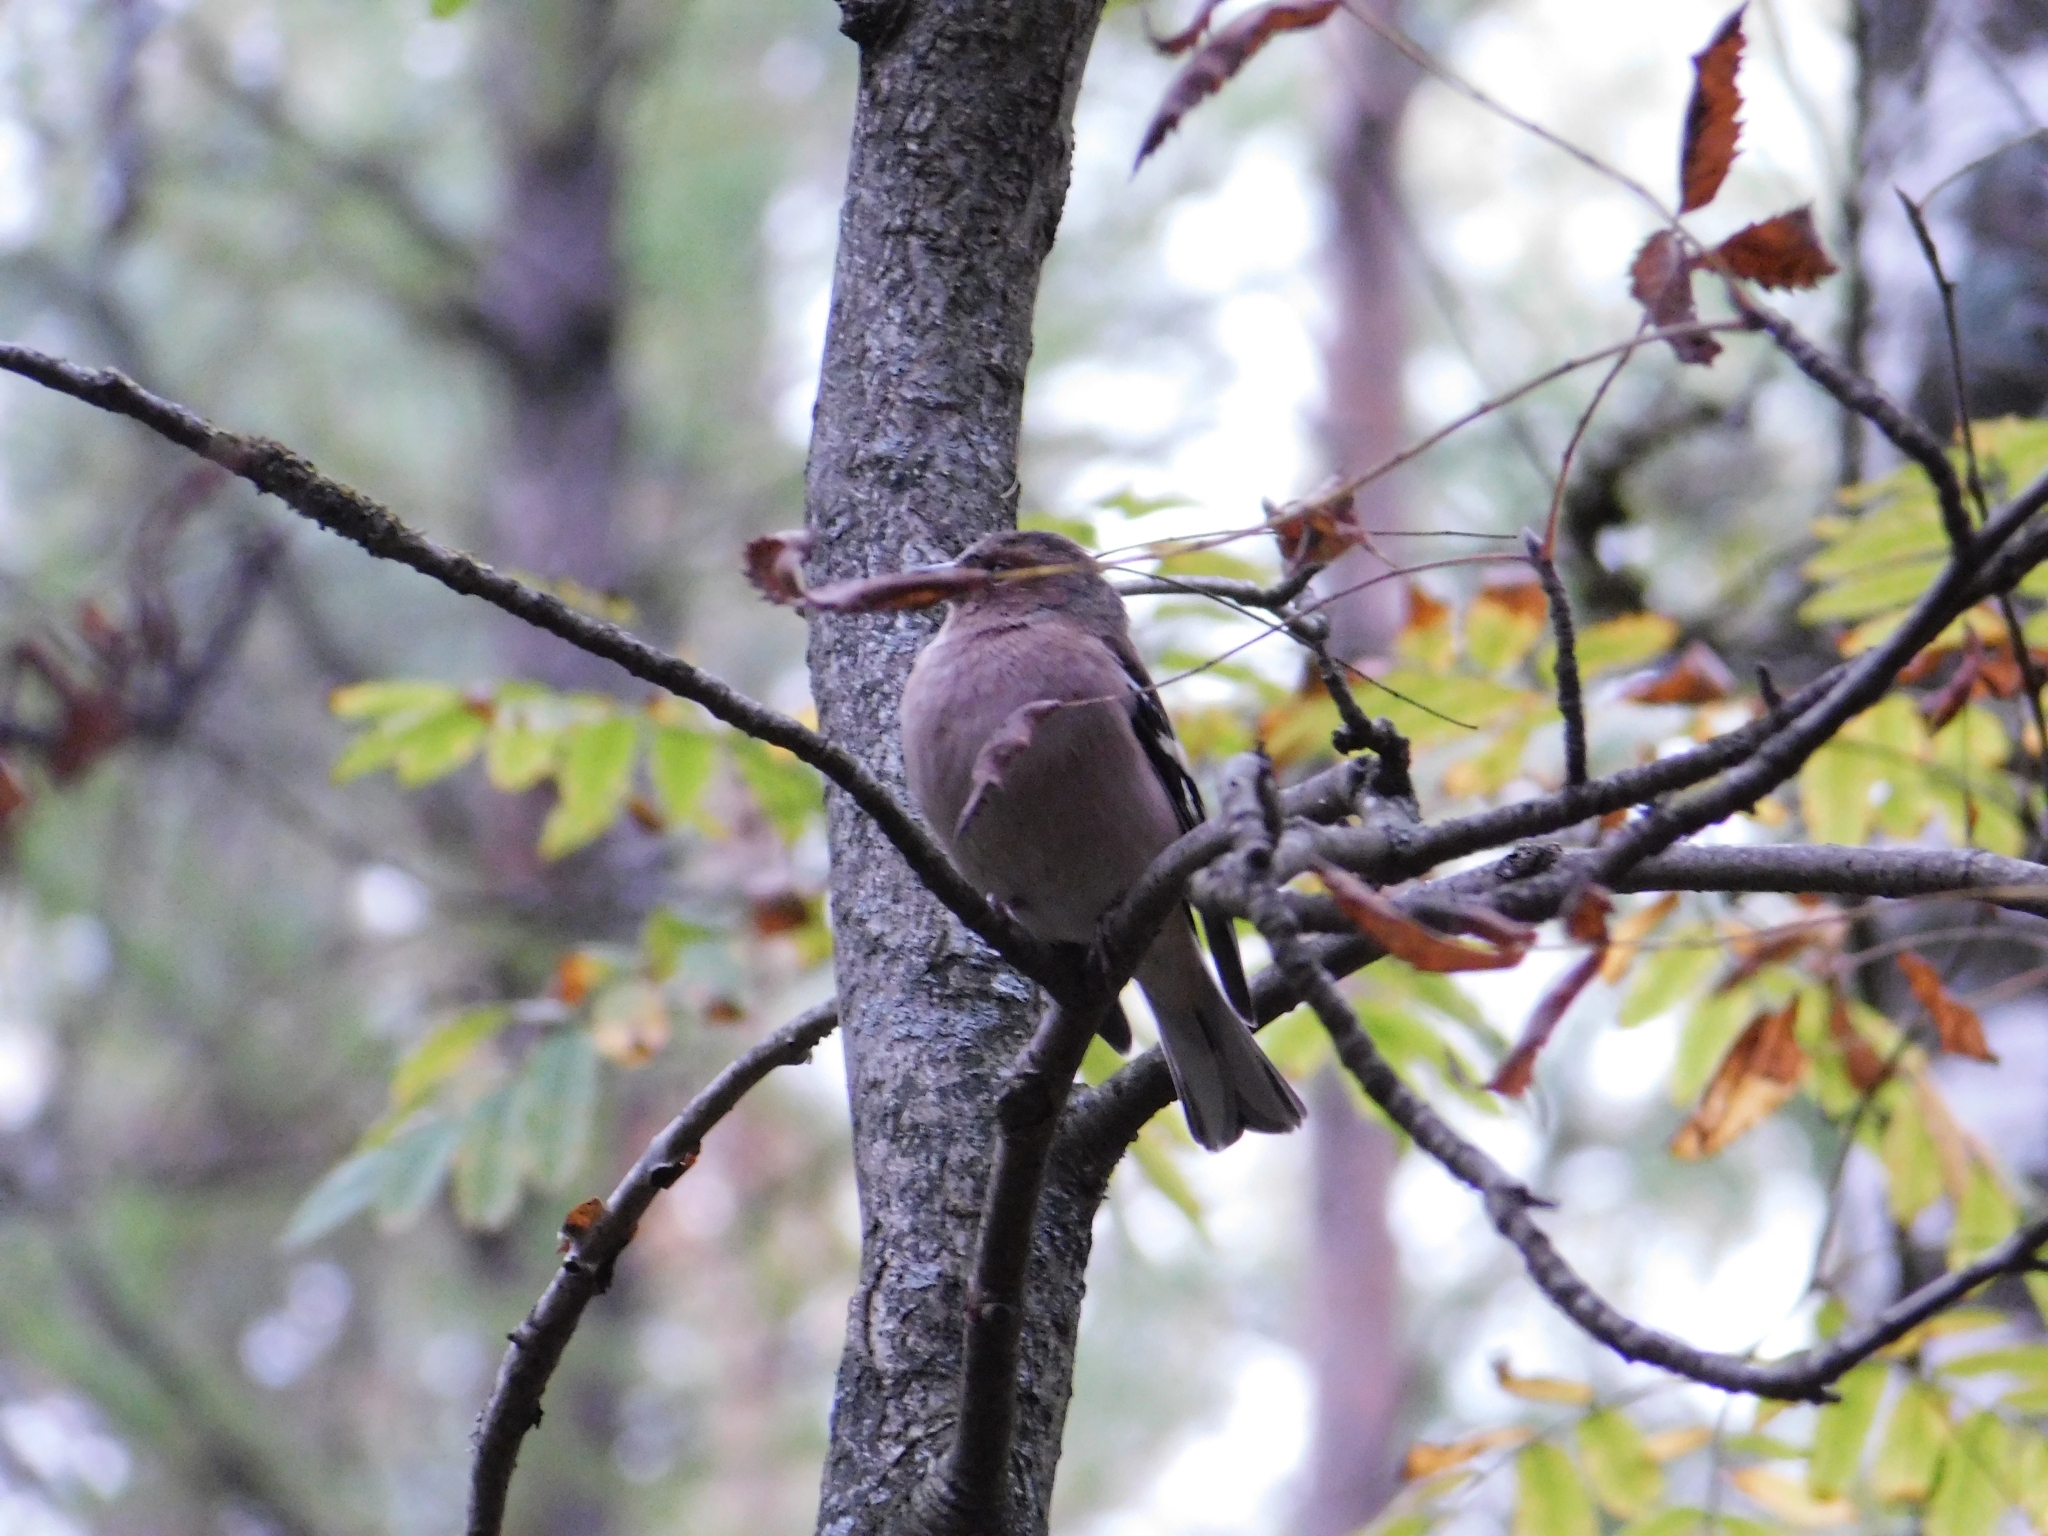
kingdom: Animalia
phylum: Chordata
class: Aves
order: Passeriformes
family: Fringillidae
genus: Fringilla
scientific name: Fringilla coelebs
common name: Common chaffinch
